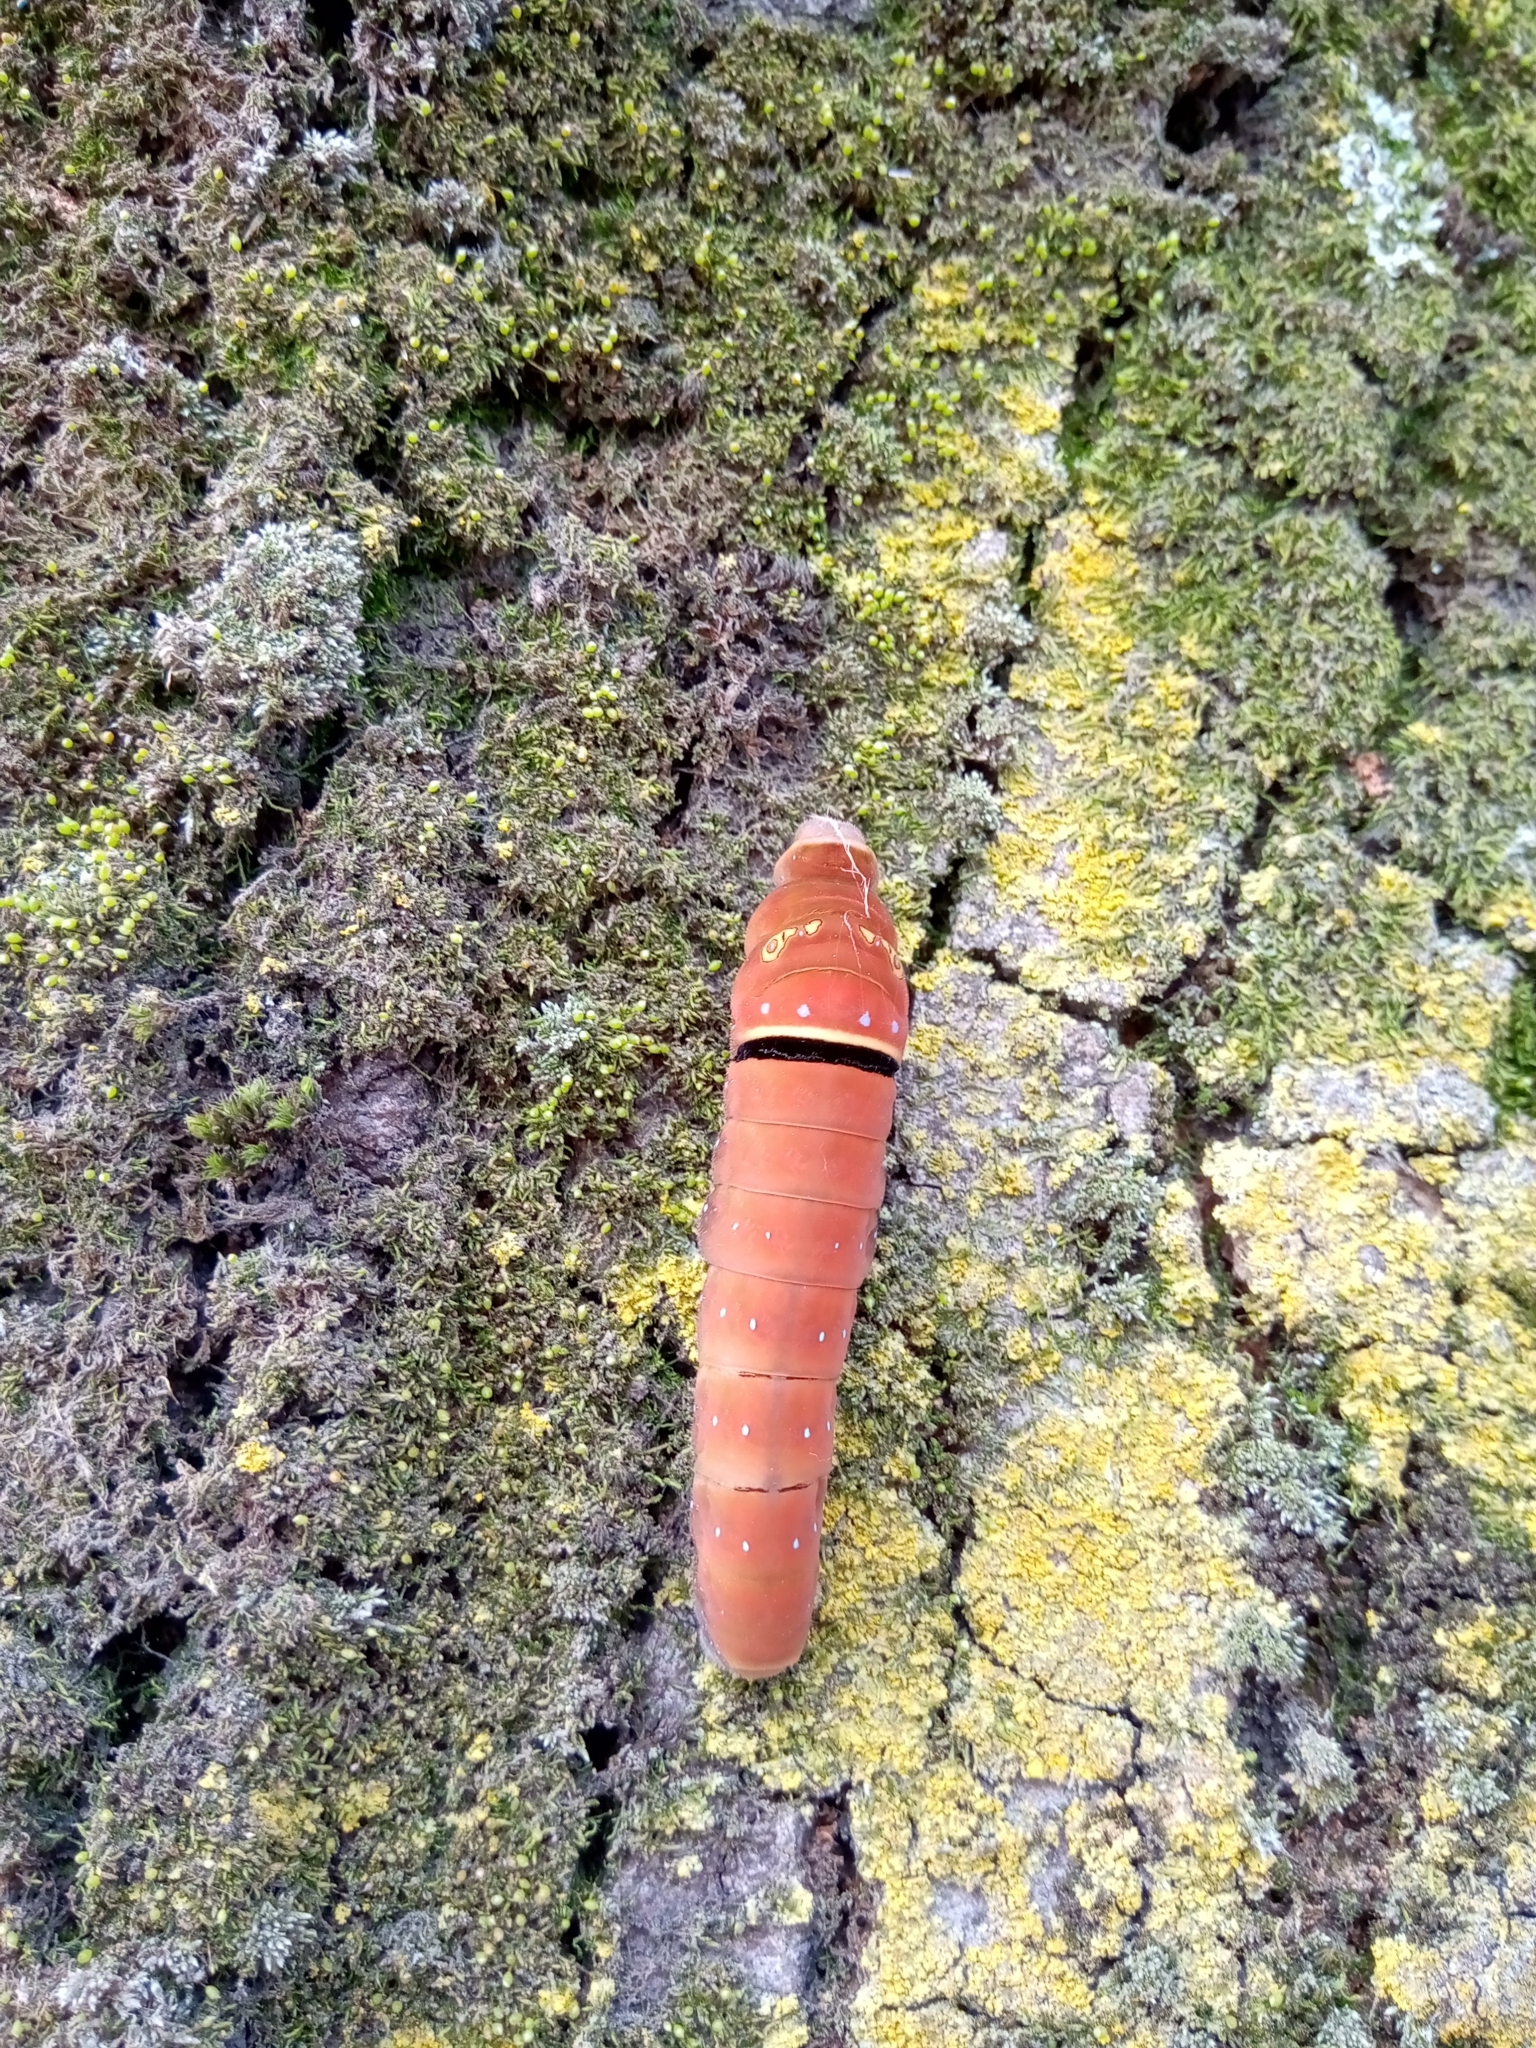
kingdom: Animalia
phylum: Arthropoda
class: Insecta
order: Lepidoptera
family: Papilionidae
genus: Papilio
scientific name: Papilio multicaudata
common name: Two-tailed tiger swallowtail
